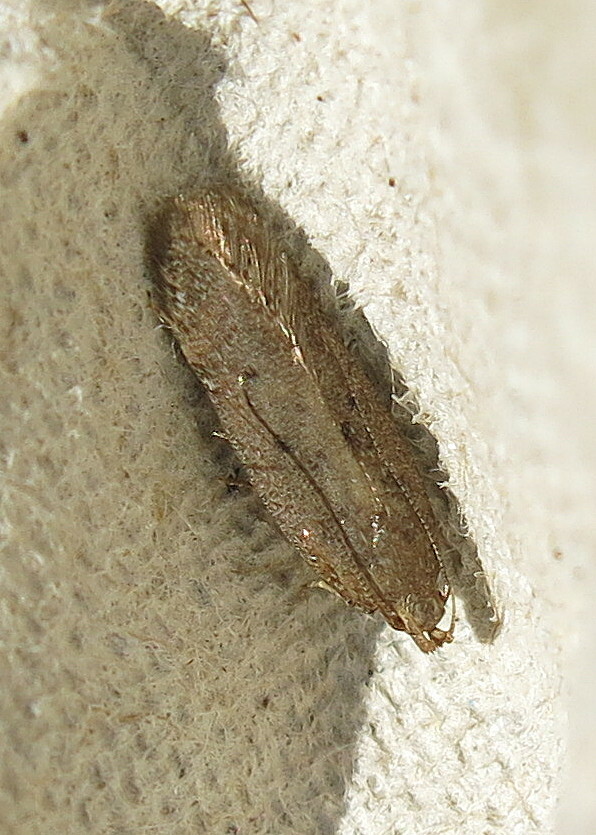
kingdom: Animalia
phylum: Arthropoda
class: Insecta
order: Lepidoptera
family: Gelechiidae
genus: Bryotropha
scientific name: Bryotropha terrella
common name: Cinerous groundling
